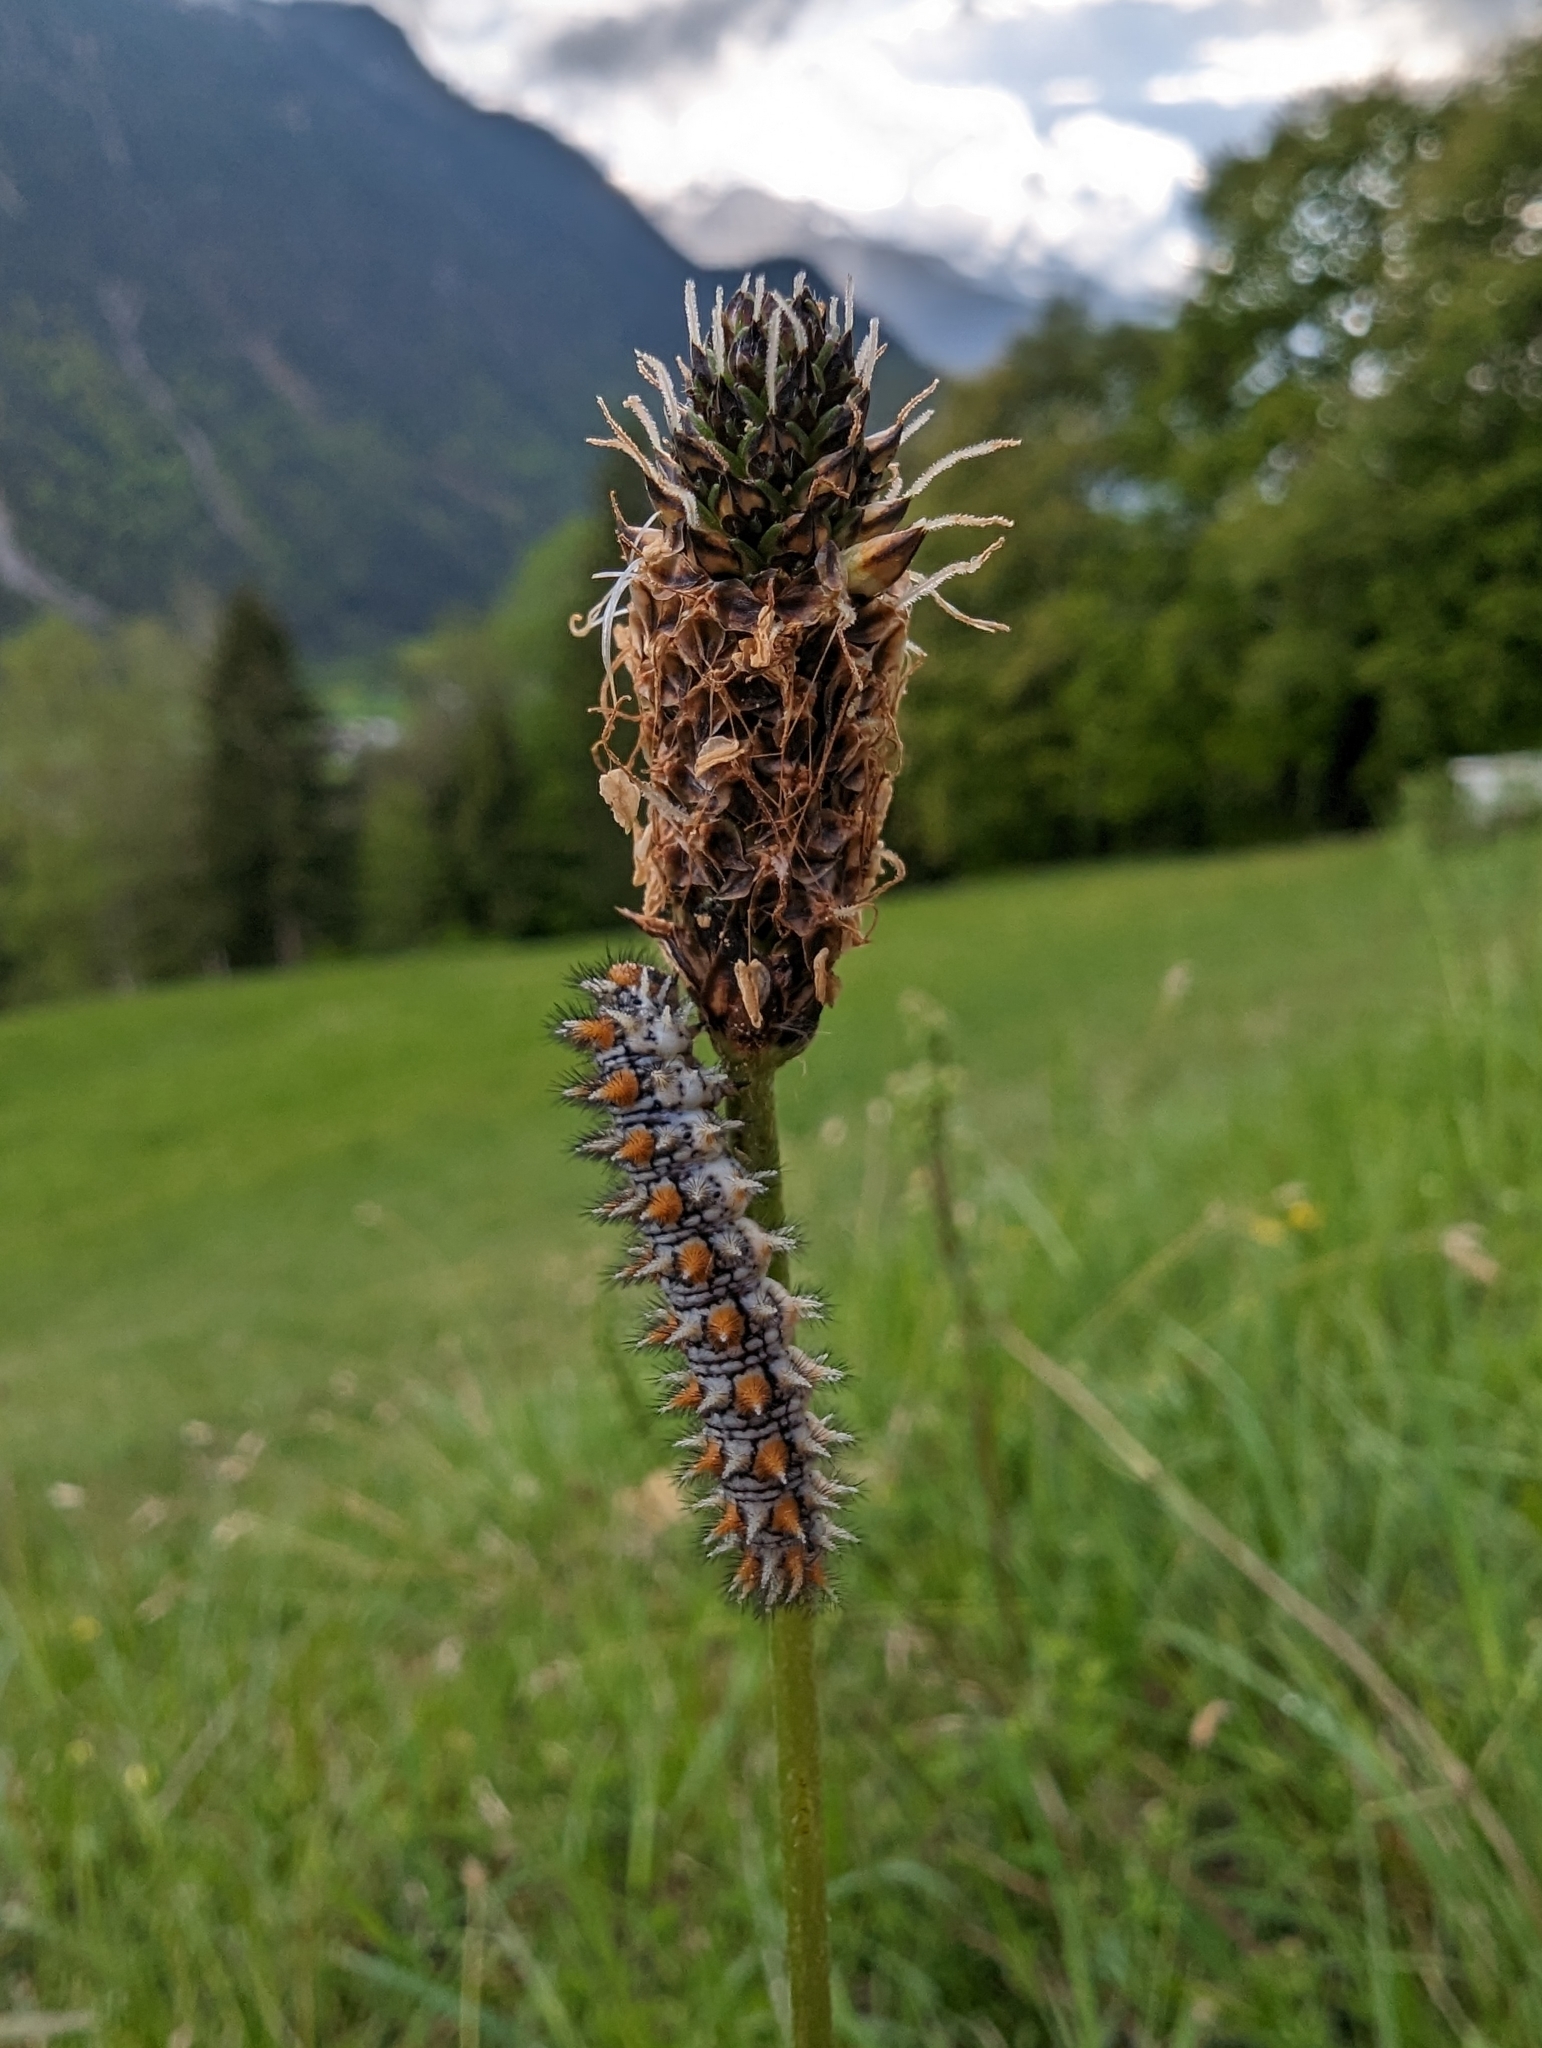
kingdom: Animalia
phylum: Arthropoda
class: Insecta
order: Lepidoptera
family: Nymphalidae
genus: Melitaea
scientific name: Melitaea didyma
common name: Spotted fritillary
